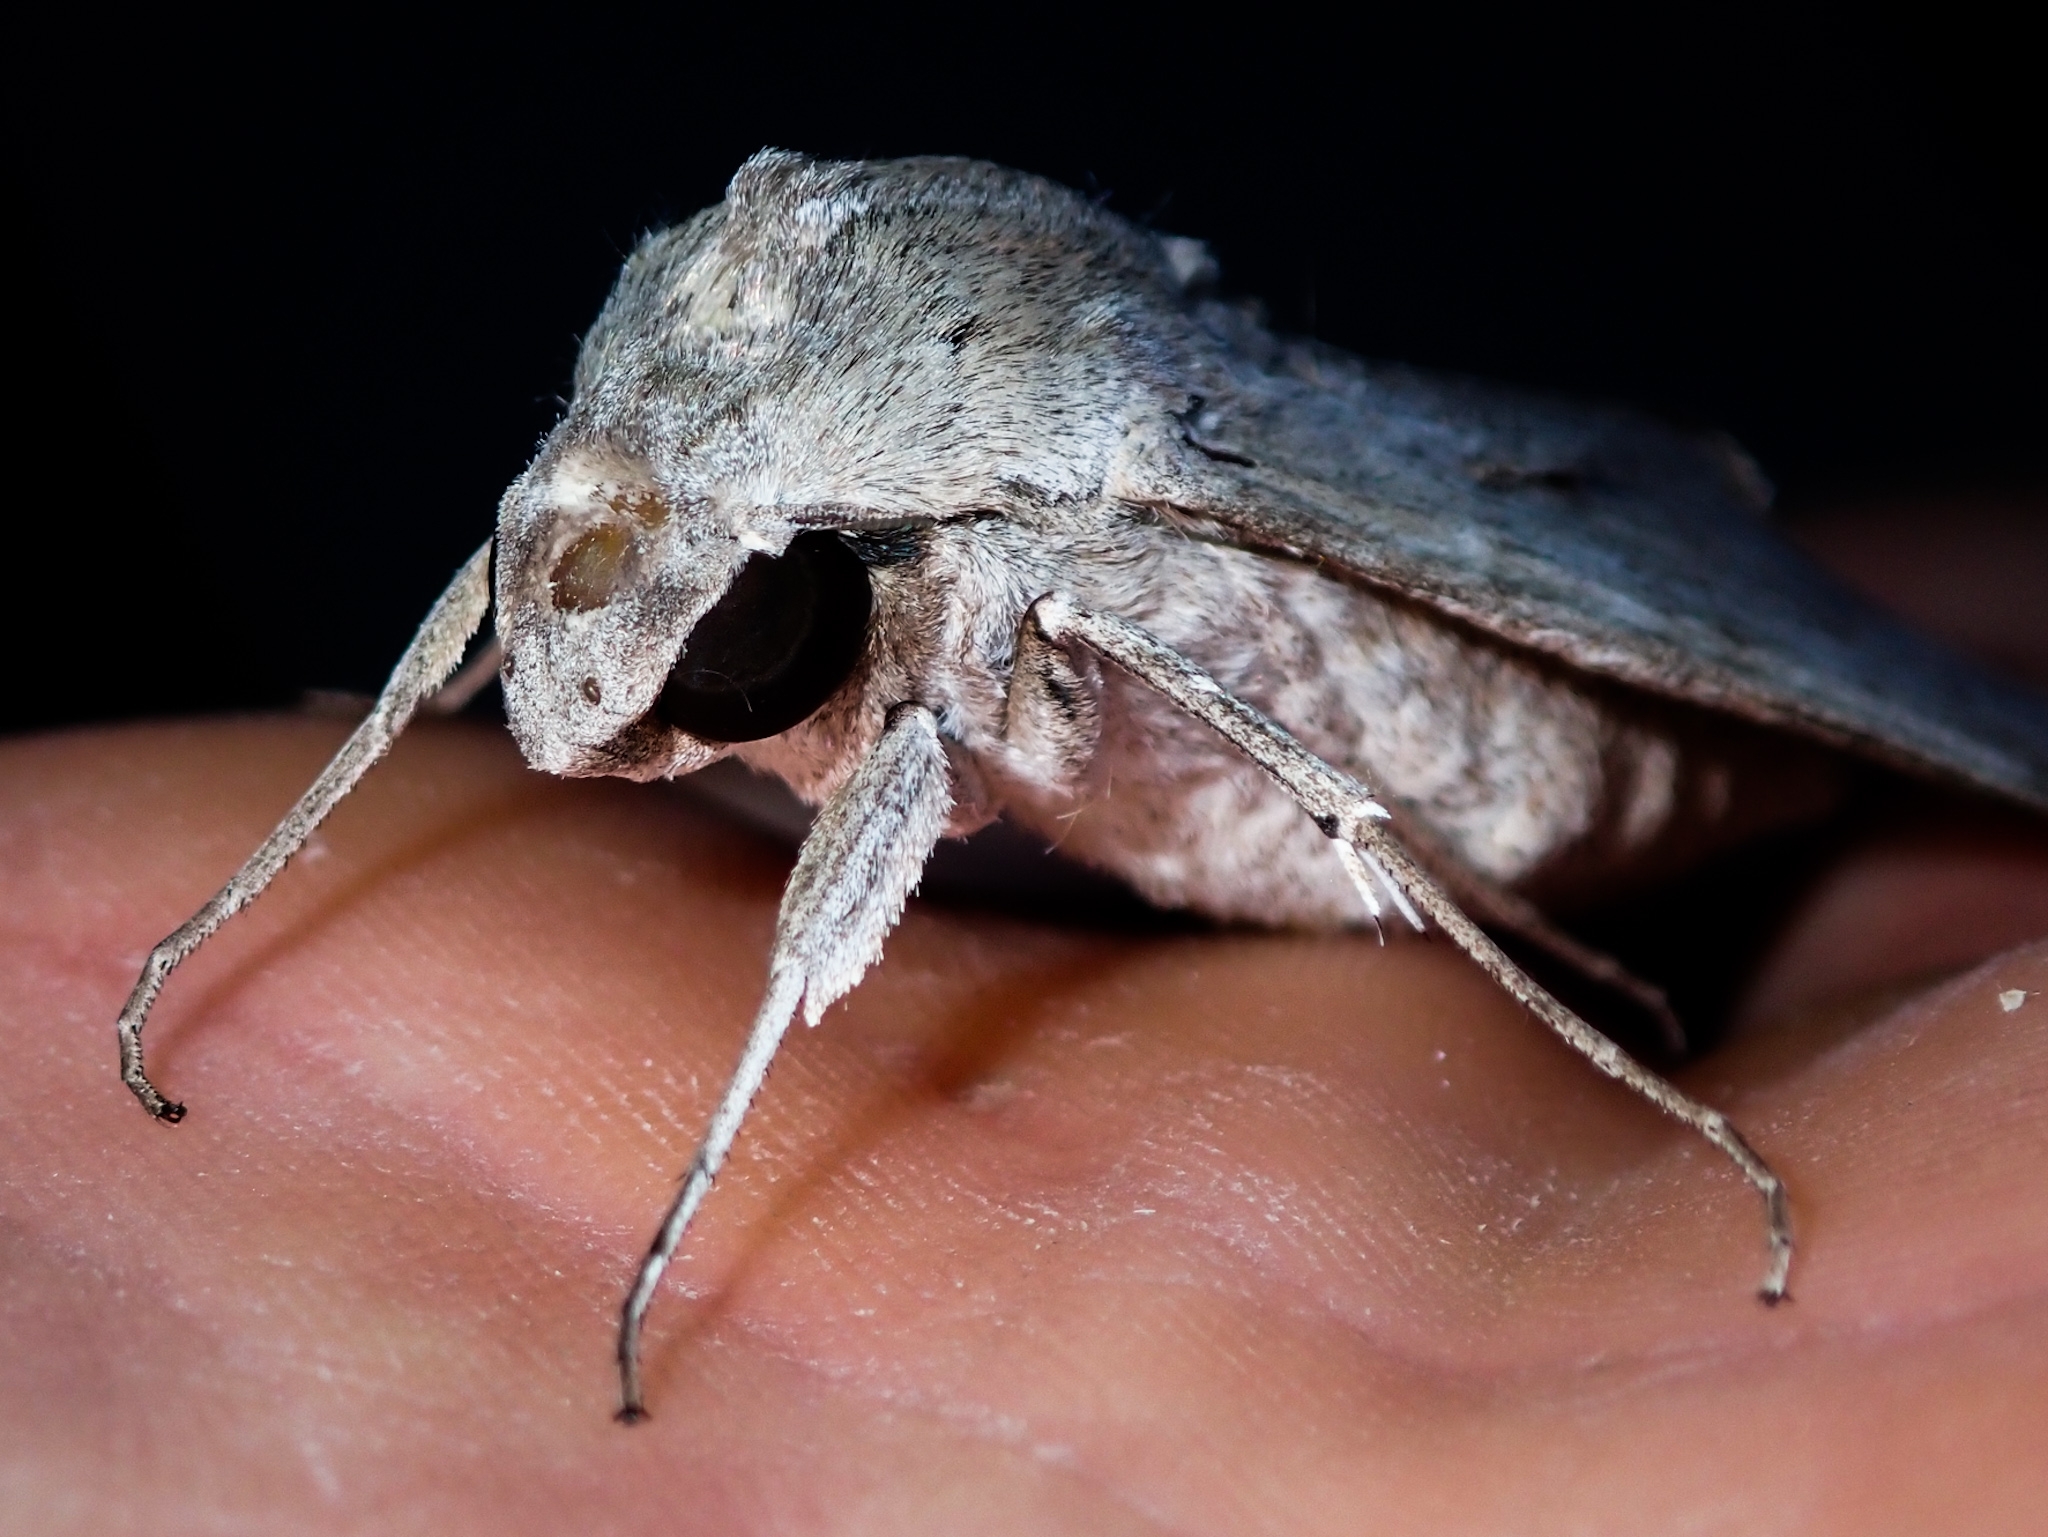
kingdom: Animalia
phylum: Arthropoda
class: Insecta
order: Lepidoptera
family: Sphingidae
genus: Erinnyis
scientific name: Erinnyis ello
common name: Ello sphinx
